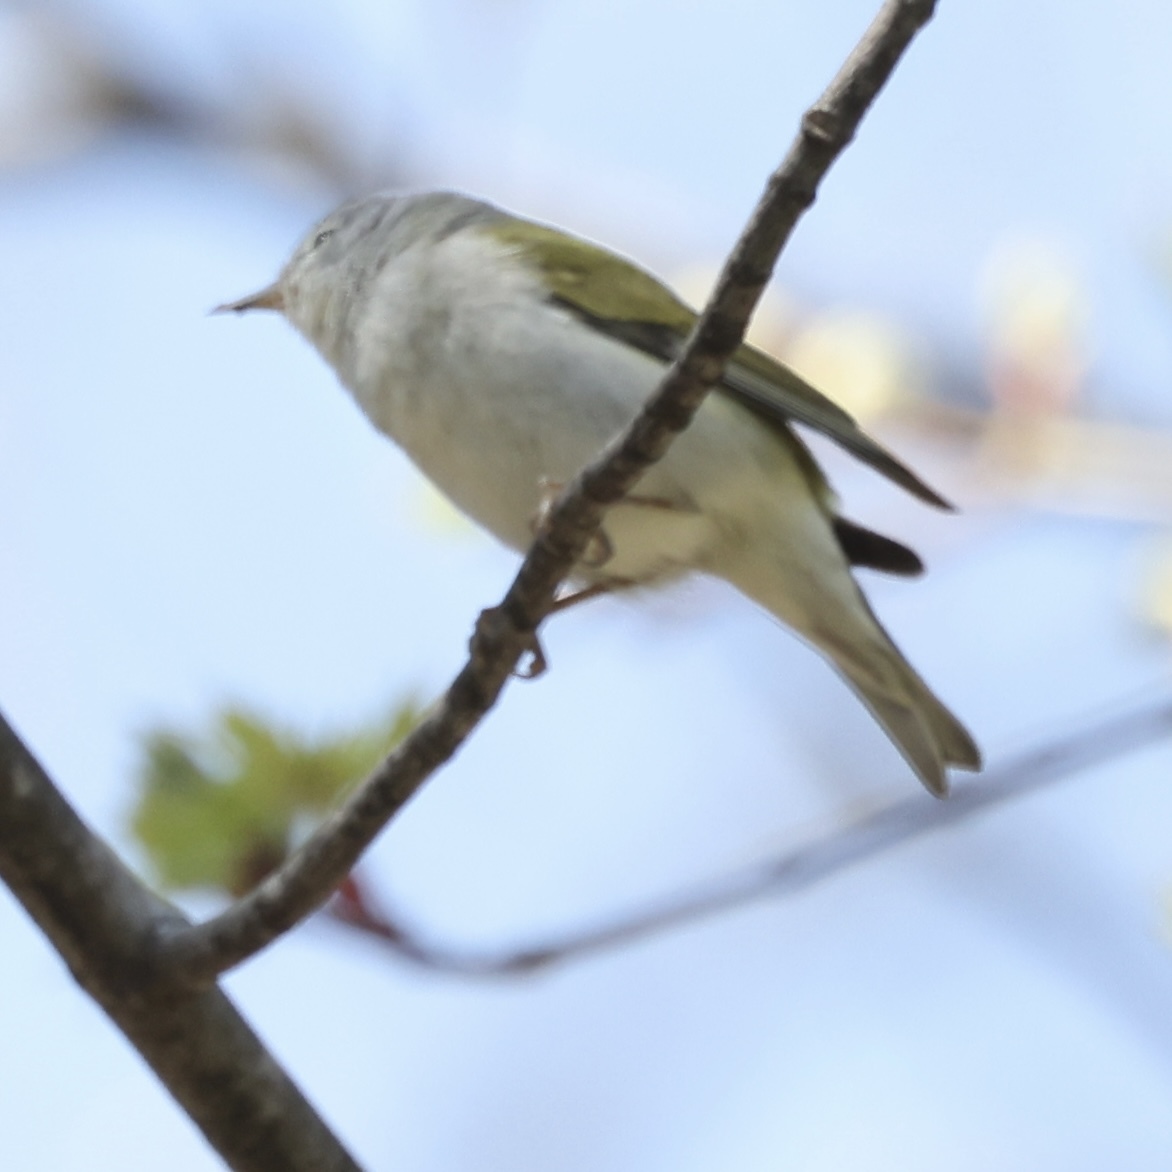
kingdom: Animalia
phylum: Chordata
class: Aves
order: Passeriformes
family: Parulidae
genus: Leiothlypis
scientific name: Leiothlypis peregrina
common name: Tennessee warbler
